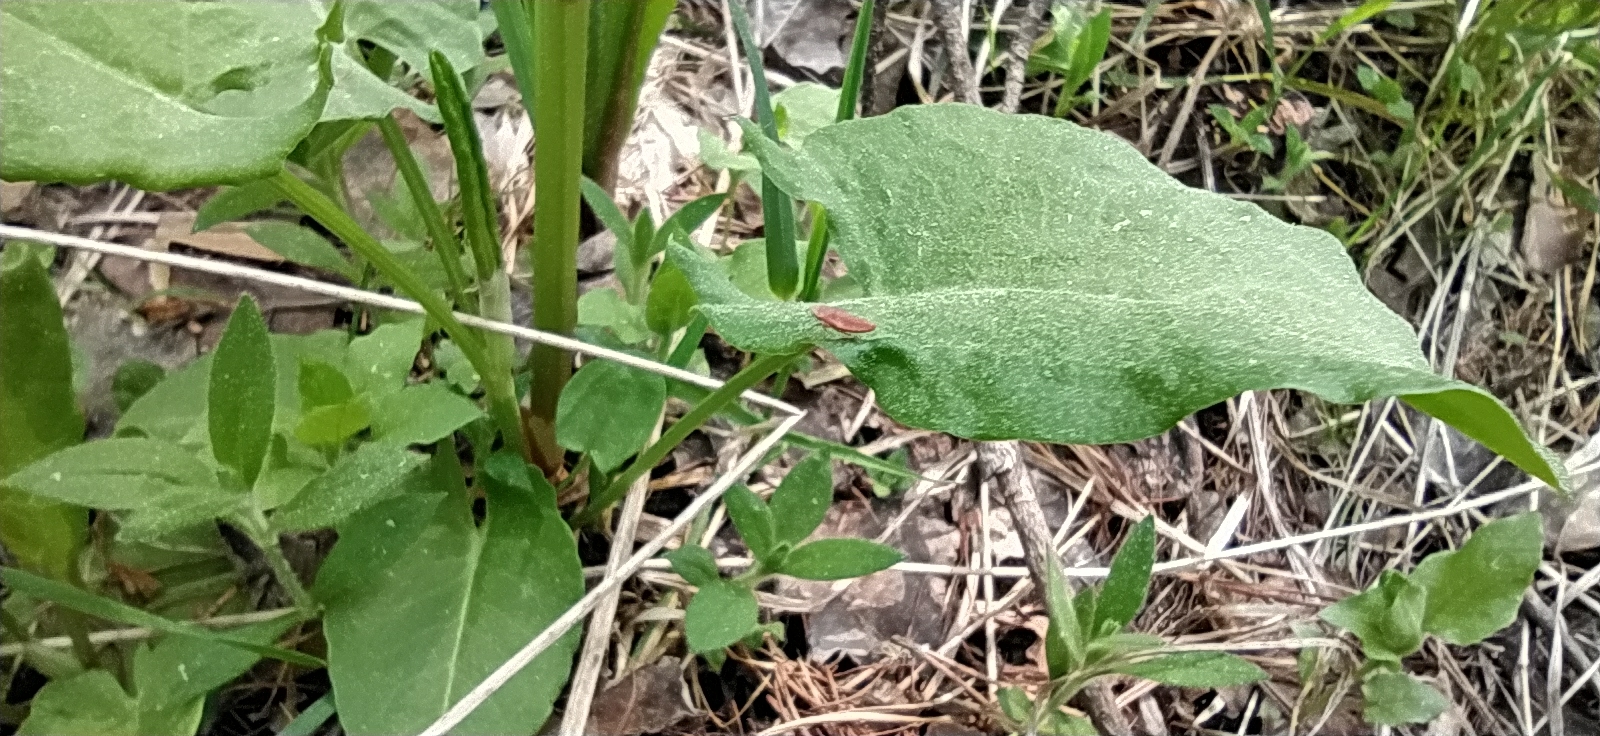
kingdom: Plantae
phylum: Tracheophyta
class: Magnoliopsida
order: Caryophyllales
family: Polygonaceae
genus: Rumex
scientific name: Rumex acetosa
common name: Garden sorrel
